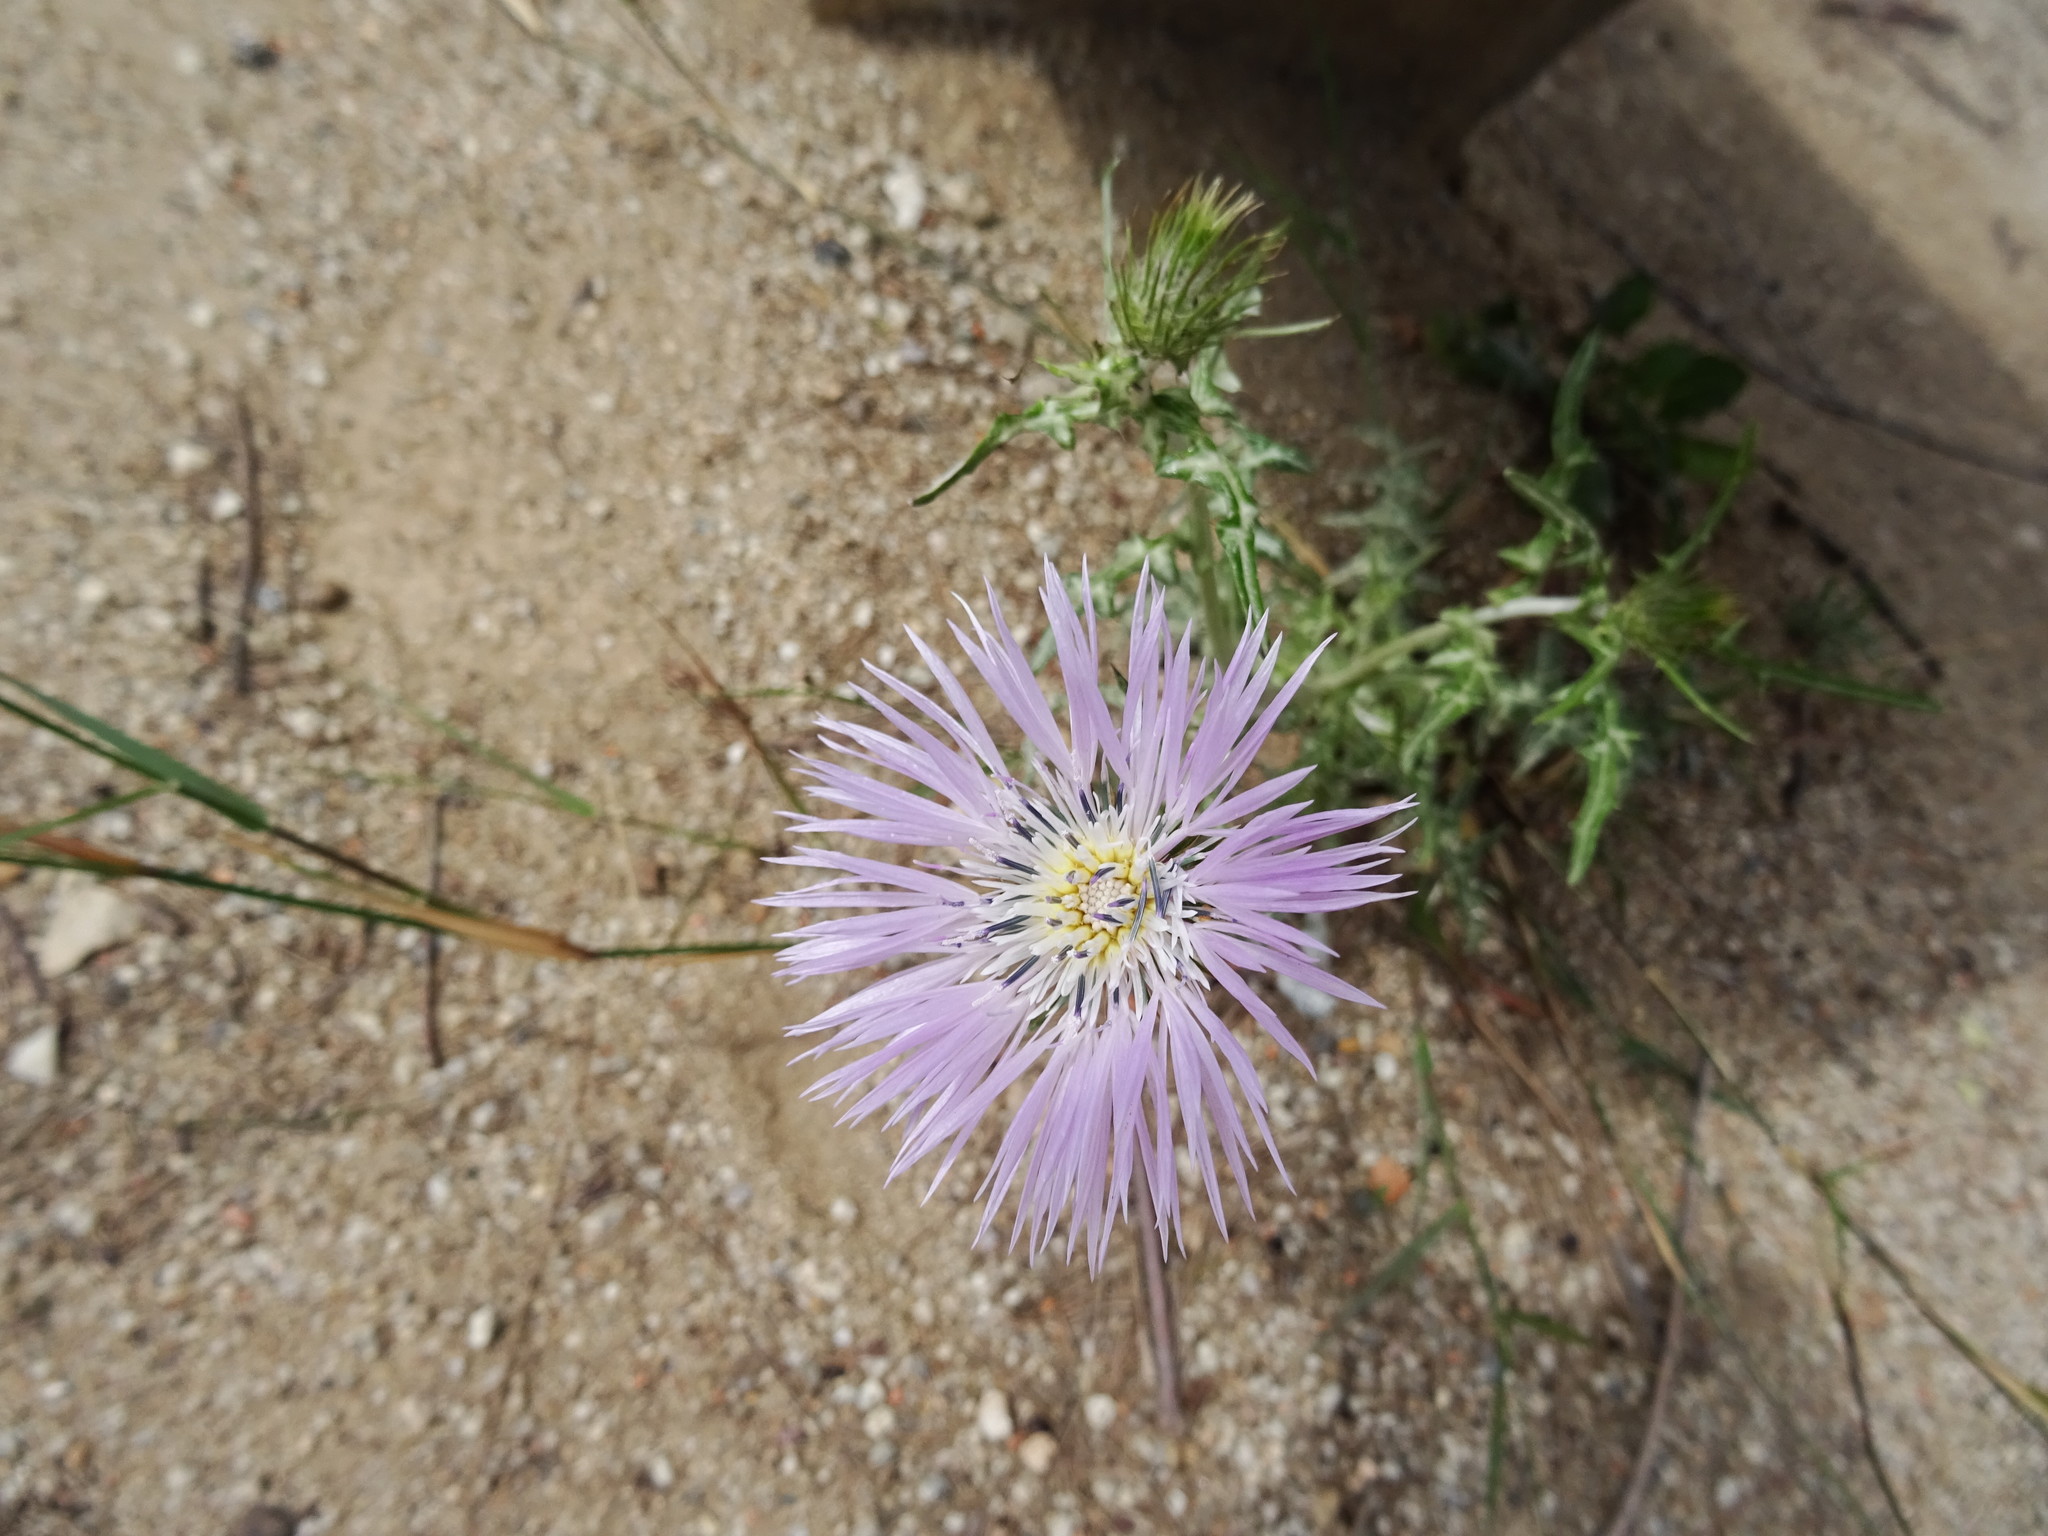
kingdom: Plantae
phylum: Tracheophyta
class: Magnoliopsida
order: Asterales
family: Asteraceae
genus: Galactites
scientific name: Galactites tomentosa
